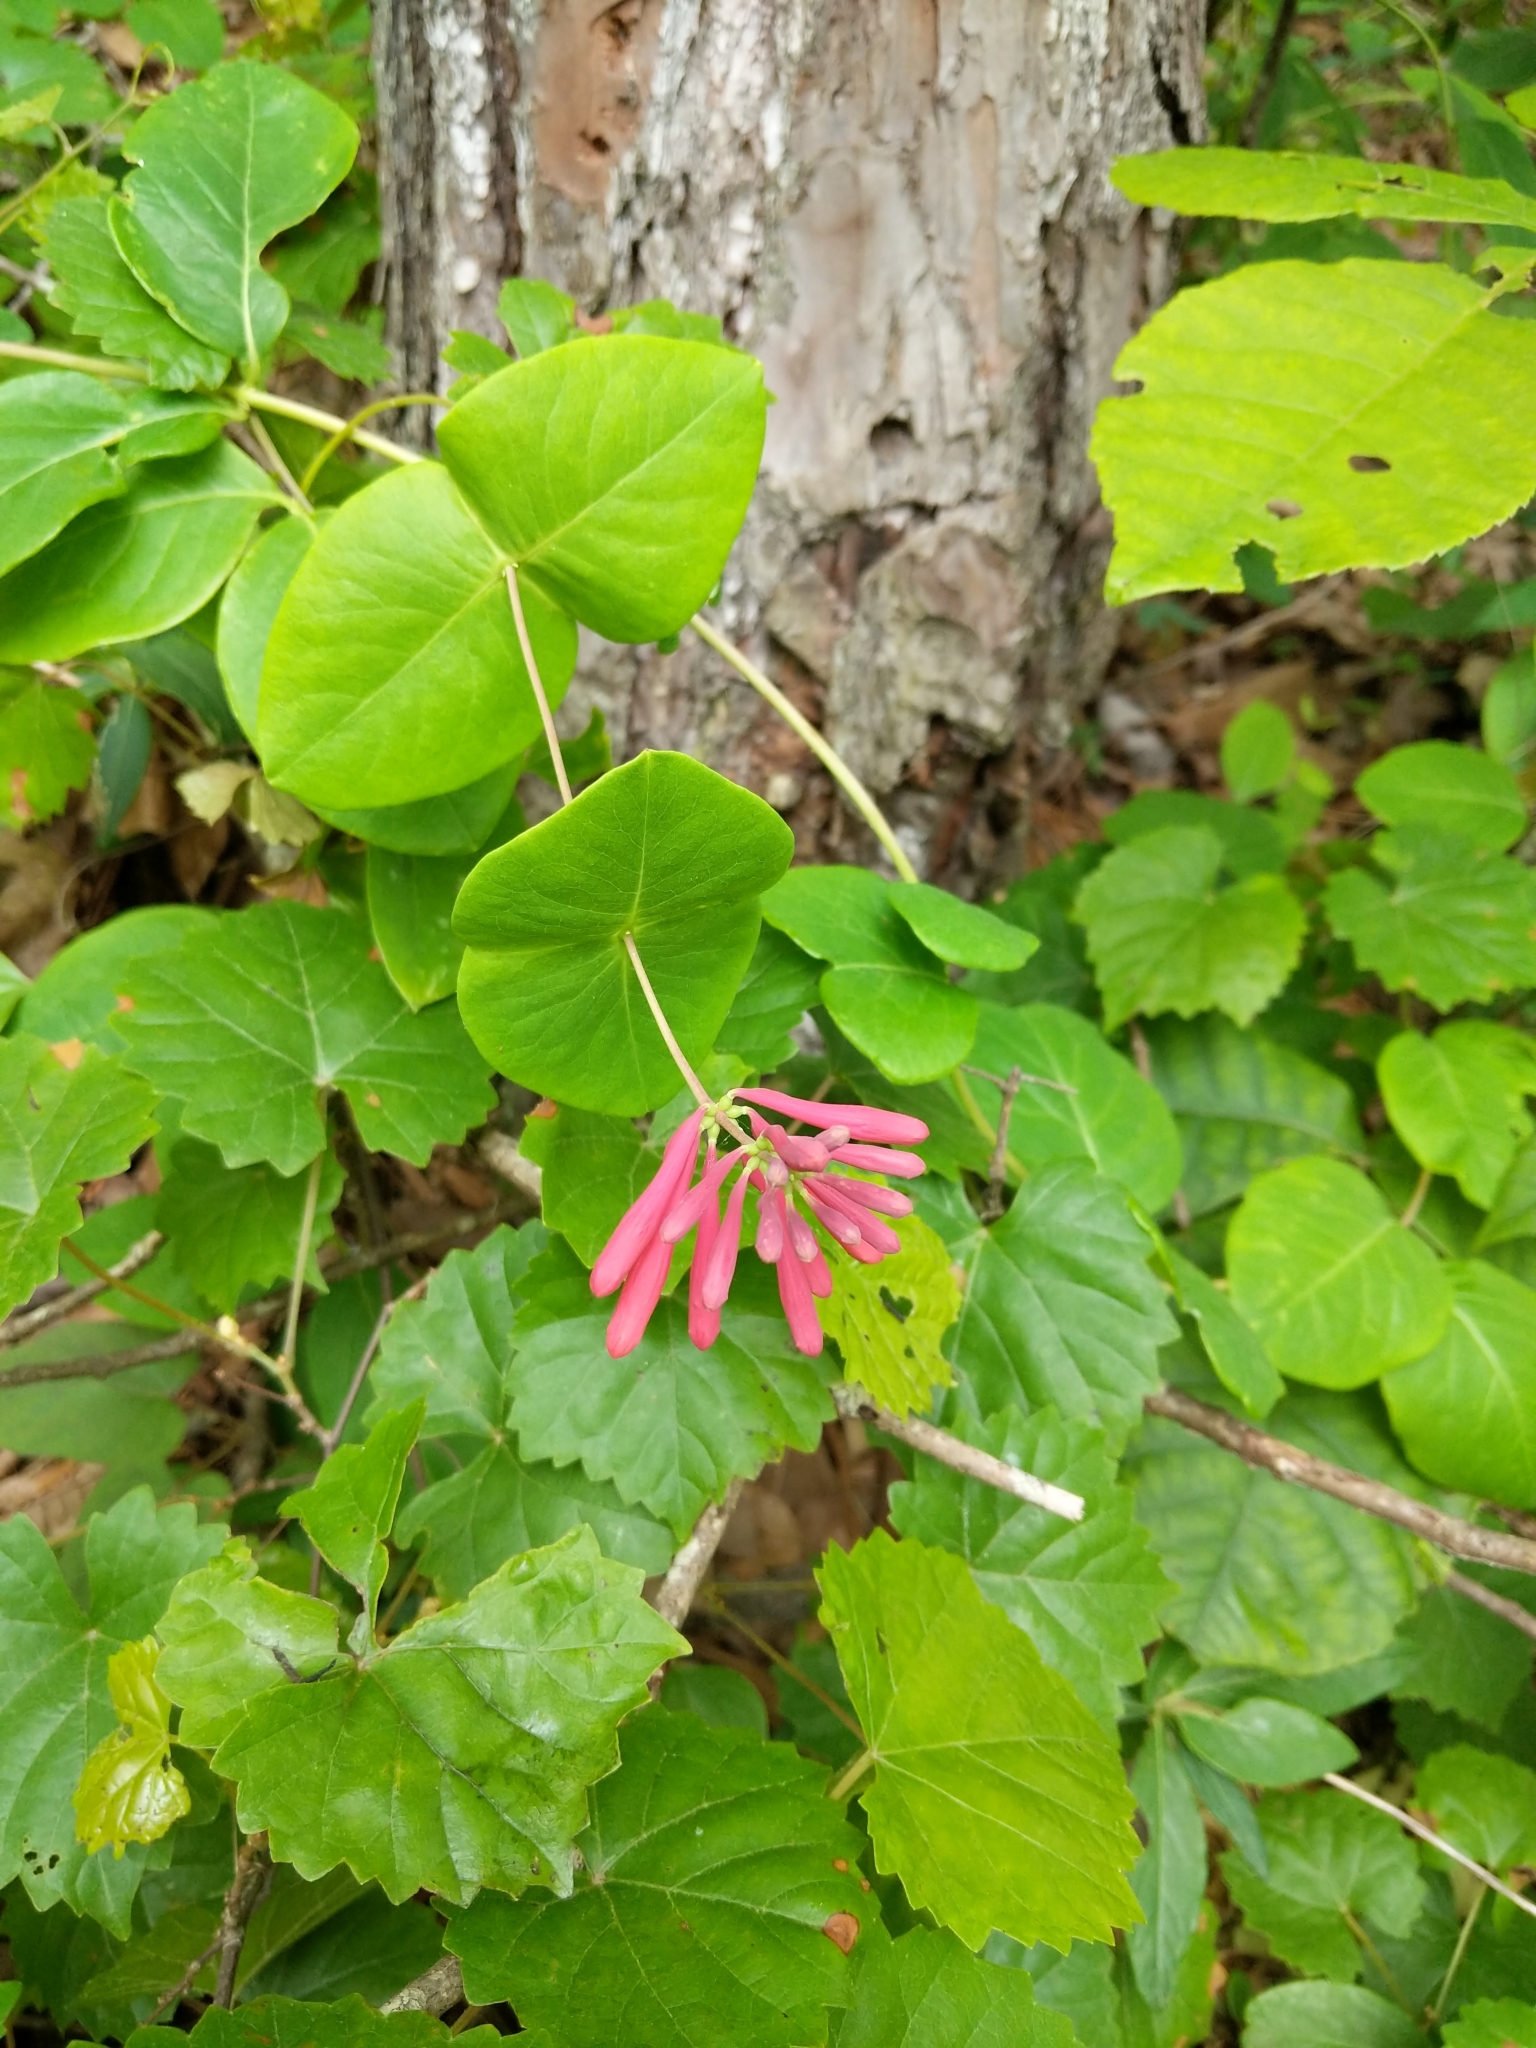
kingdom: Plantae
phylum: Tracheophyta
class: Magnoliopsida
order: Dipsacales
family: Caprifoliaceae
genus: Lonicera
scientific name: Lonicera sempervirens
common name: Coral honeysuckle
